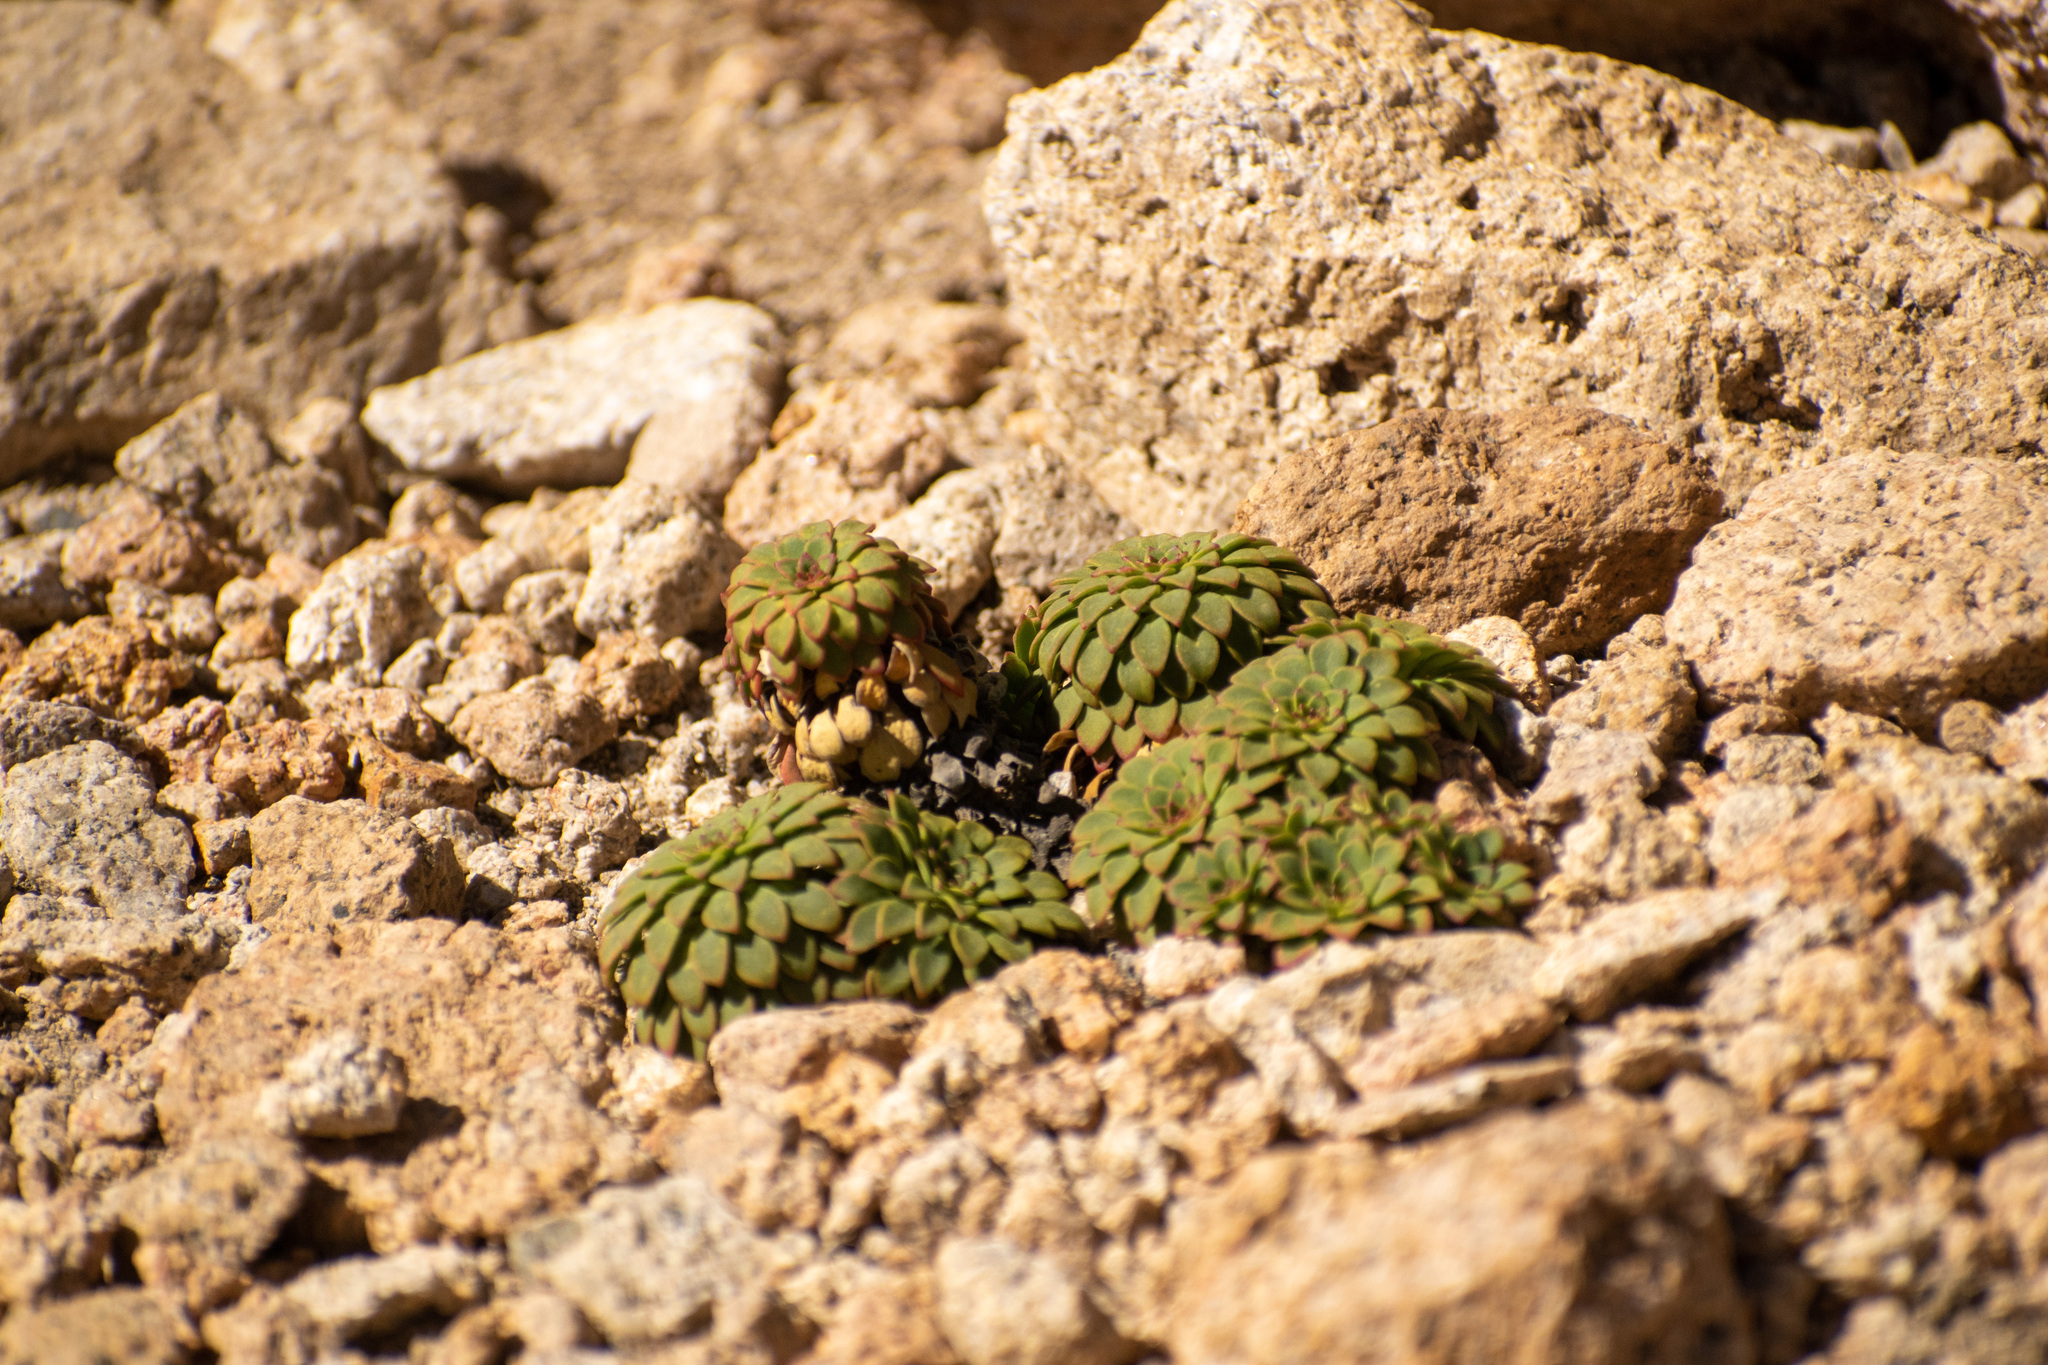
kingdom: Plantae
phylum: Tracheophyta
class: Magnoliopsida
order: Malpighiales
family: Violaceae
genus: Viola
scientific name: Viola sacculus
